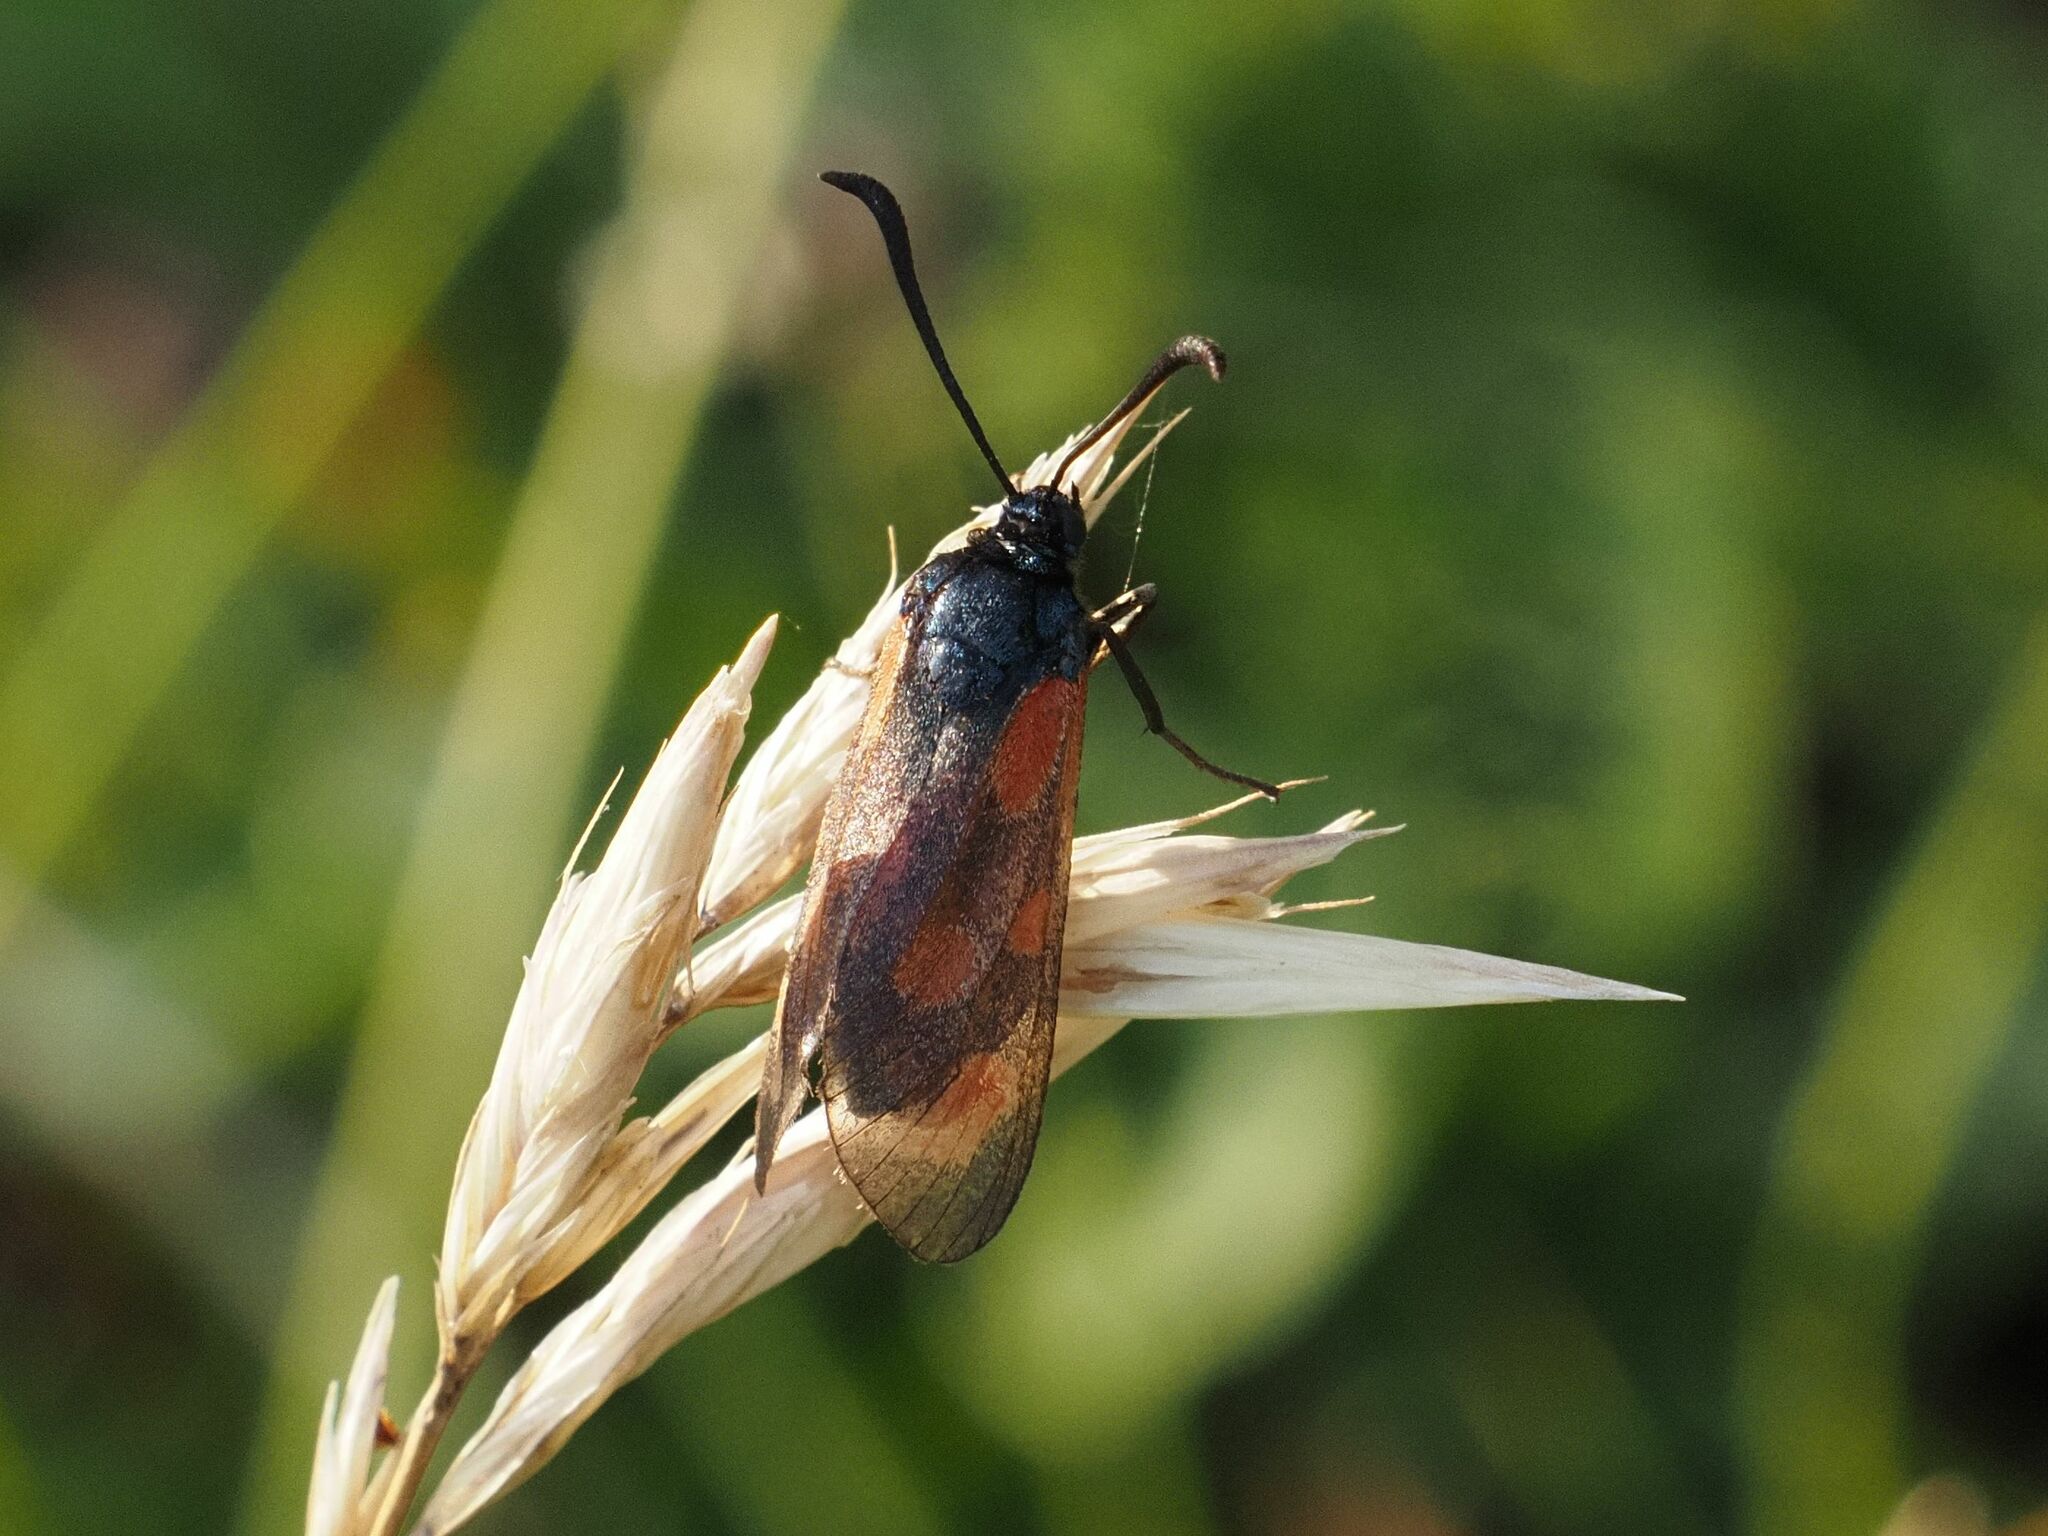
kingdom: Animalia
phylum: Arthropoda
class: Insecta
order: Lepidoptera
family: Zygaenidae
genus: Zygaena
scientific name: Zygaena loti
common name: Slender scotch burnet
